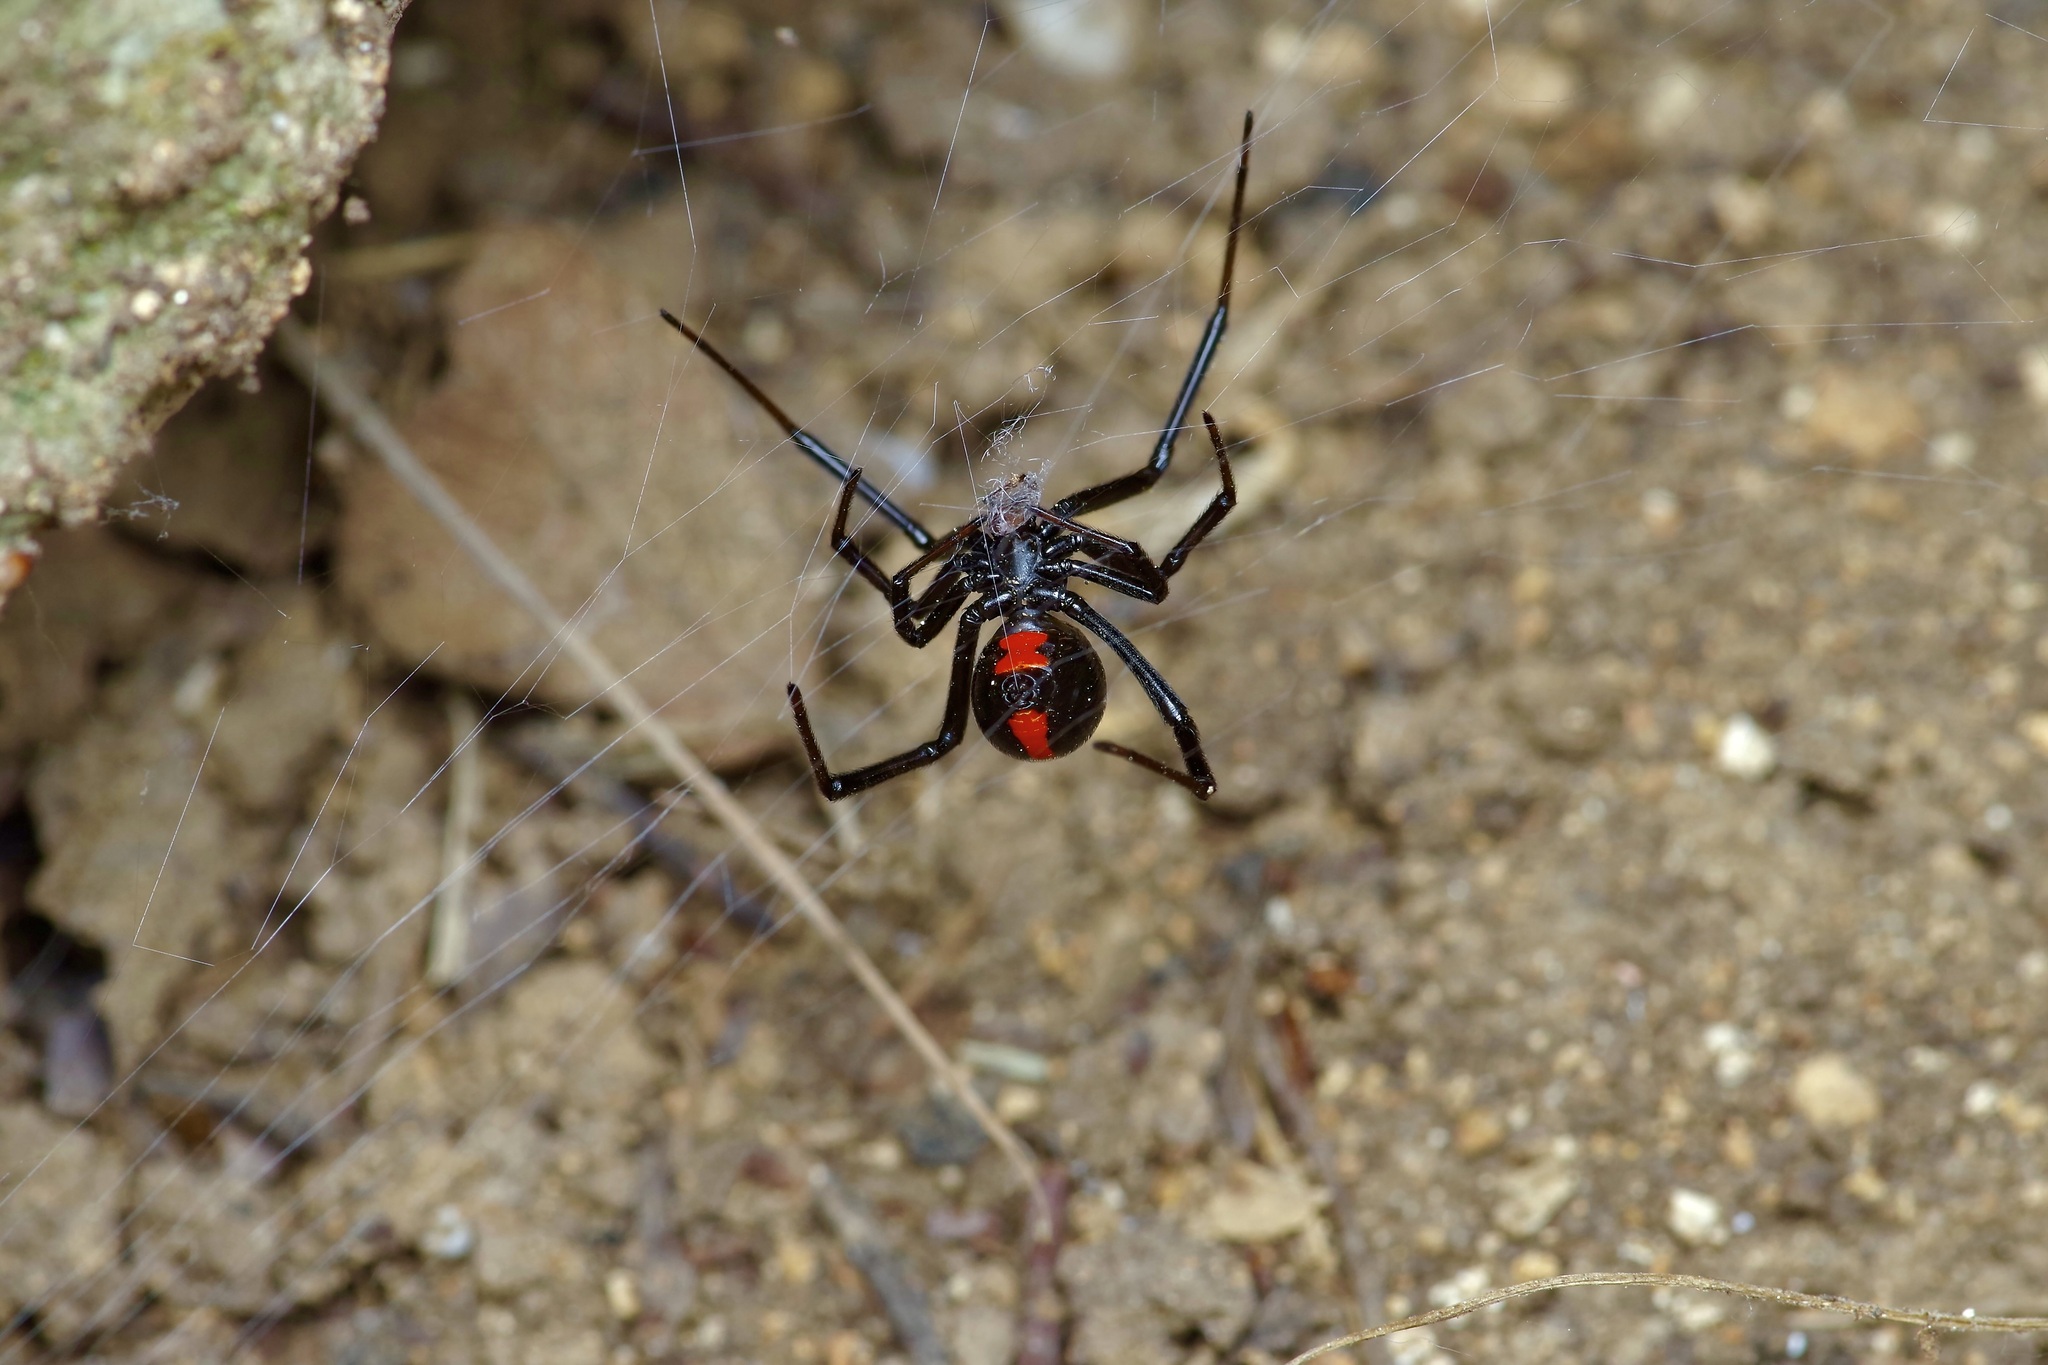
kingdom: Animalia
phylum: Arthropoda
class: Arachnida
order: Araneae
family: Theridiidae
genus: Latrodectus
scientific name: Latrodectus mactans
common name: Cobweb spiders
